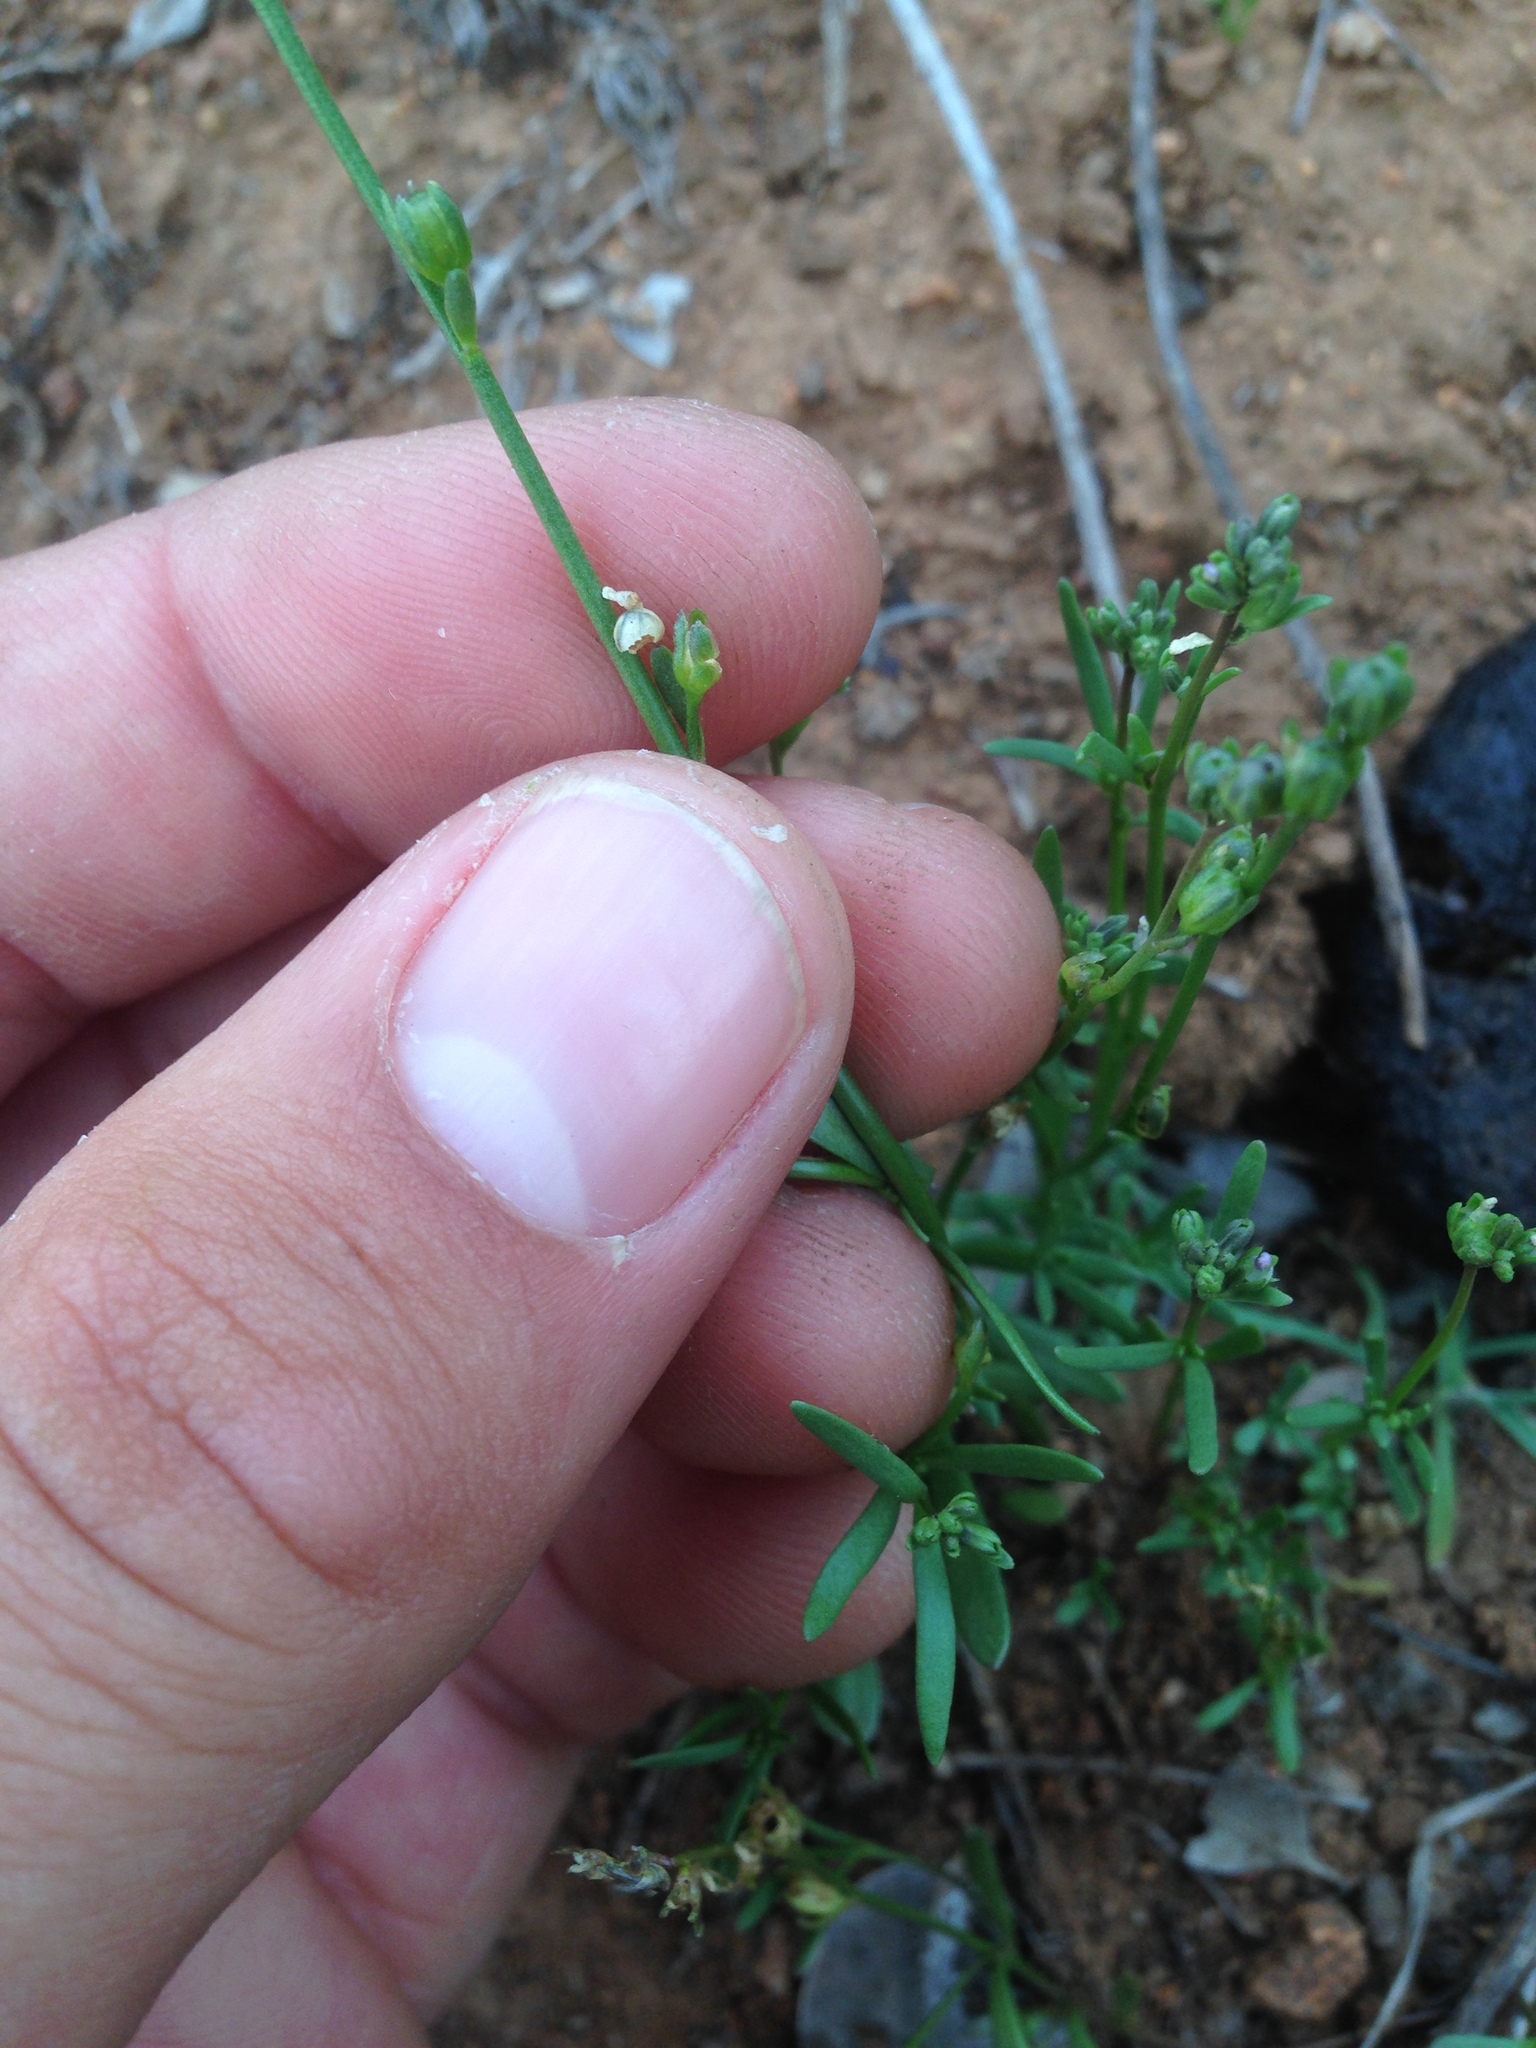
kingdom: Plantae
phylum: Tracheophyta
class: Magnoliopsida
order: Lamiales
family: Plantaginaceae
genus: Nuttallanthus
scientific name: Nuttallanthus texanus
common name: Texas toadflax
